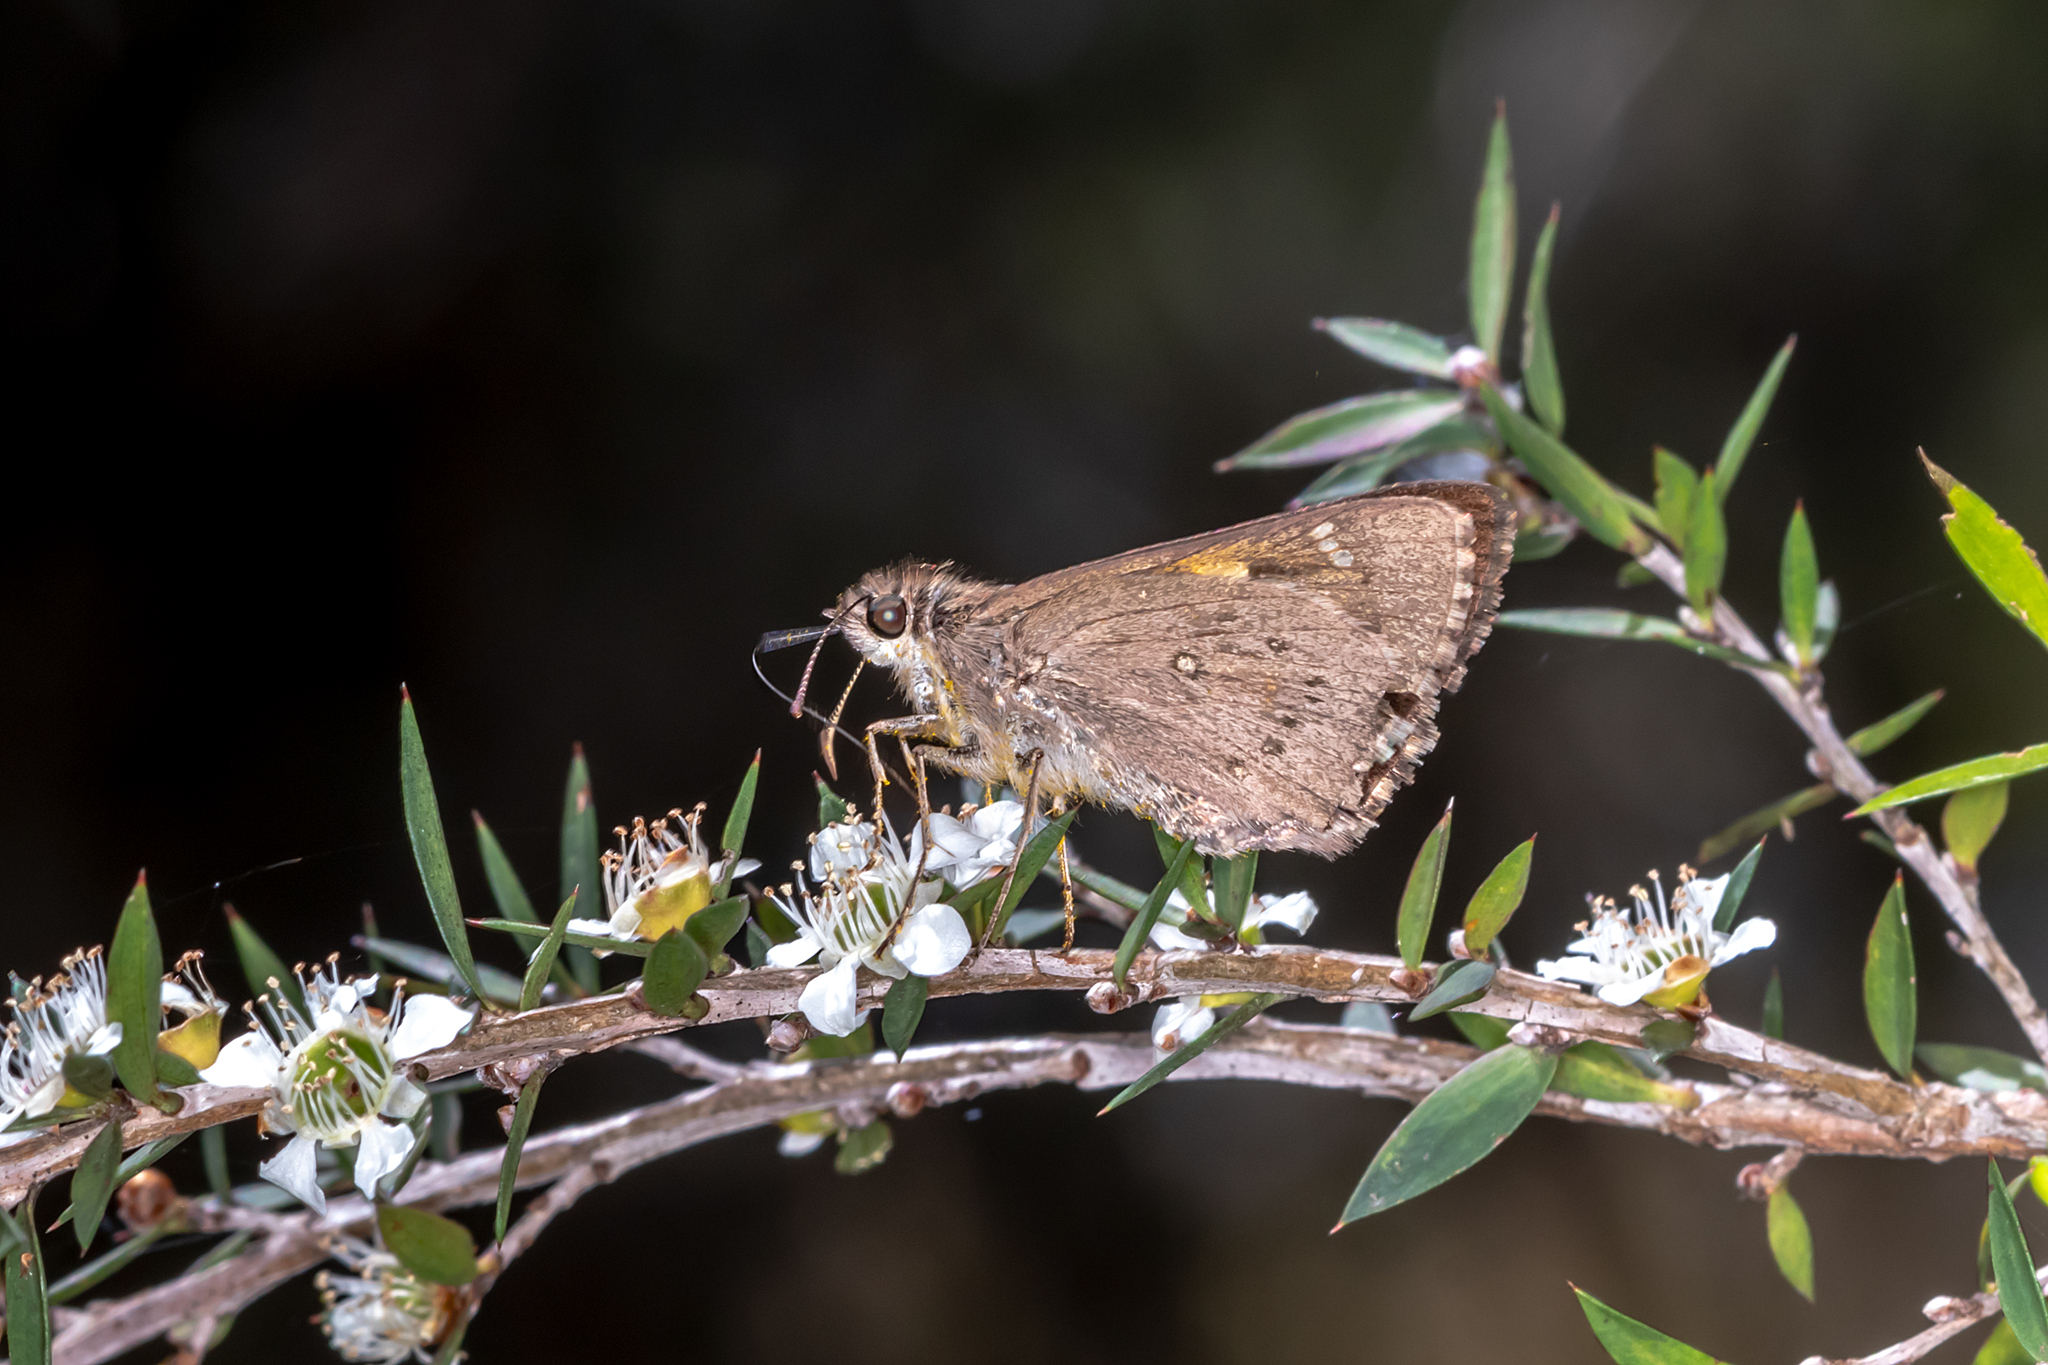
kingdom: Animalia
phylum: Arthropoda
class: Insecta
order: Lepidoptera
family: Hesperiidae
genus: Hesperilla
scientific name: Hesperilla donnysa
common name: Varied sedge-skipper
